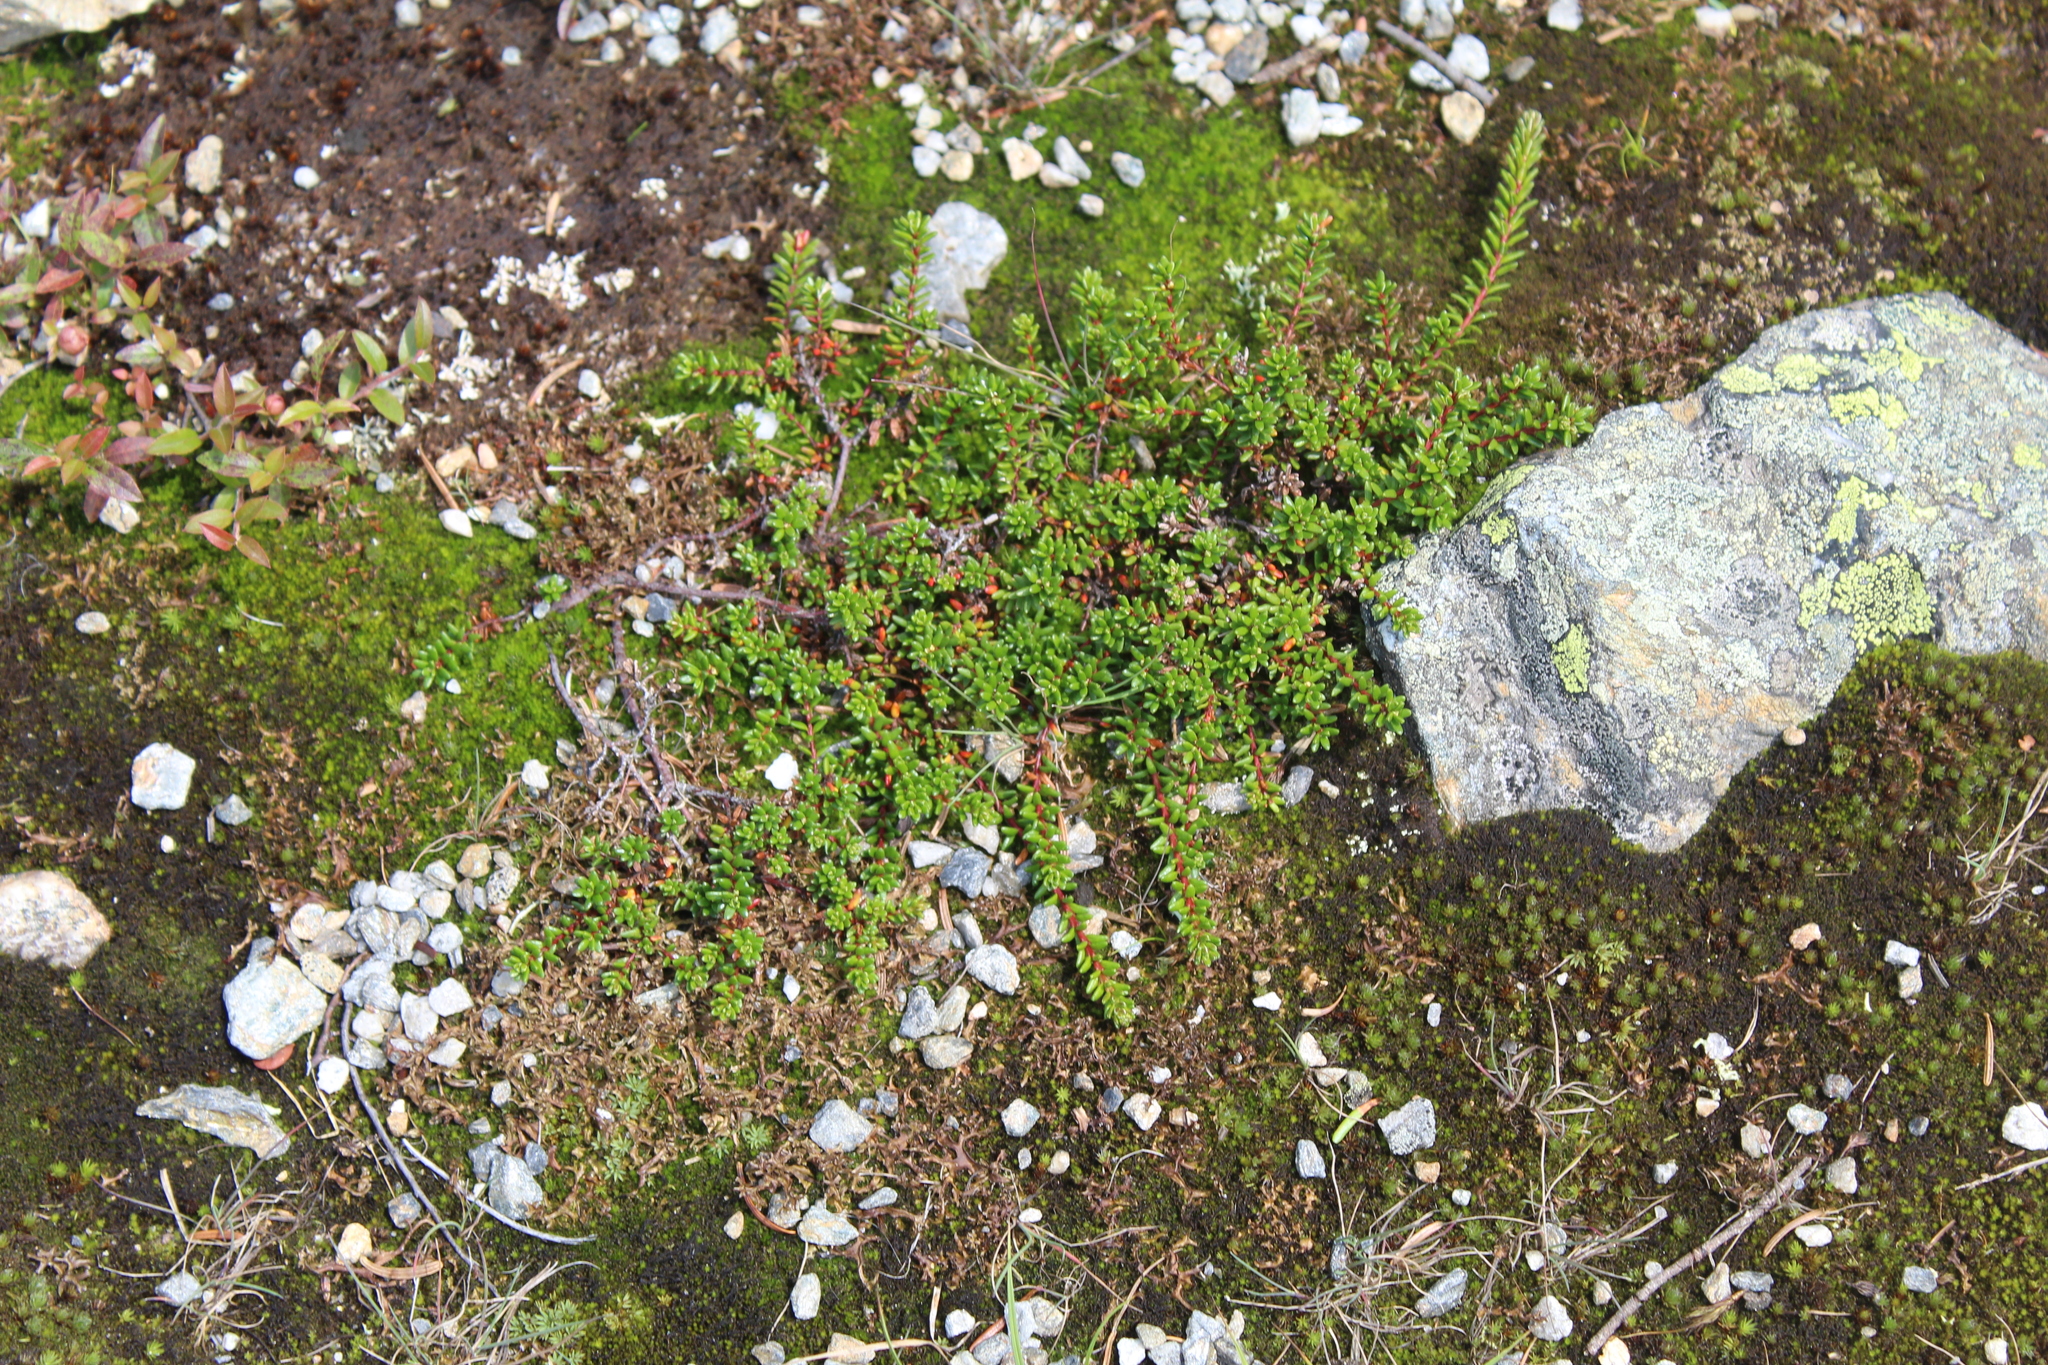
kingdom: Plantae
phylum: Tracheophyta
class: Magnoliopsida
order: Ericales
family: Ericaceae
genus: Empetrum
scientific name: Empetrum hermaphroditum
